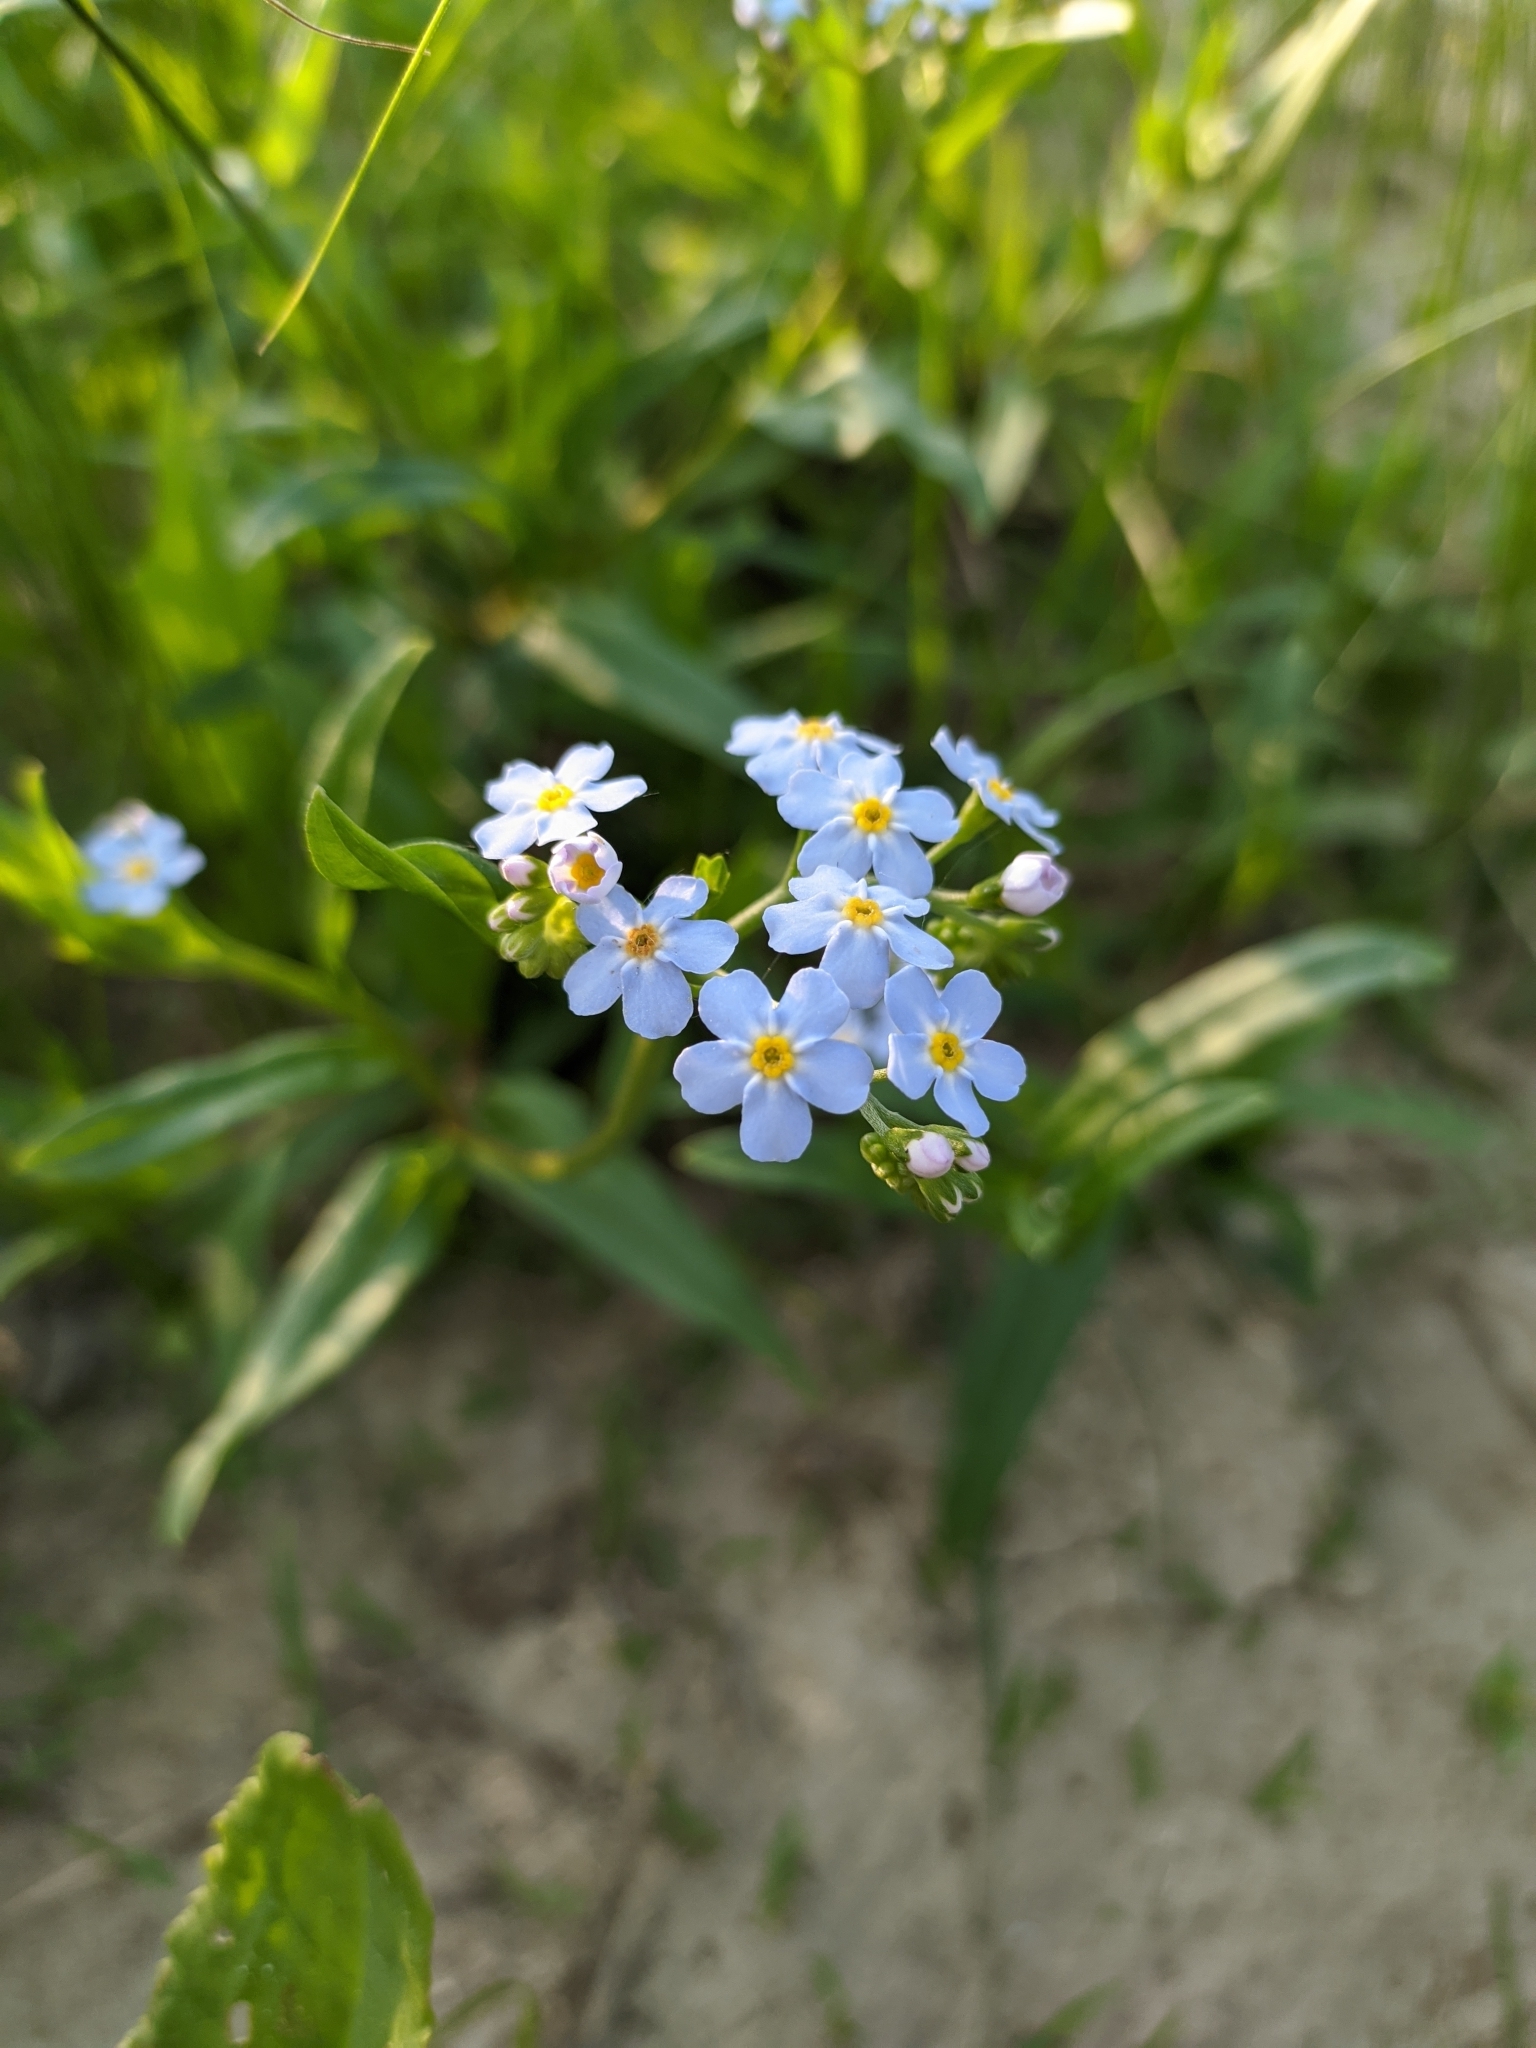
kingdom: Plantae
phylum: Tracheophyta
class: Magnoliopsida
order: Boraginales
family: Boraginaceae
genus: Myosotis
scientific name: Myosotis scorpioides
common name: Water forget-me-not
